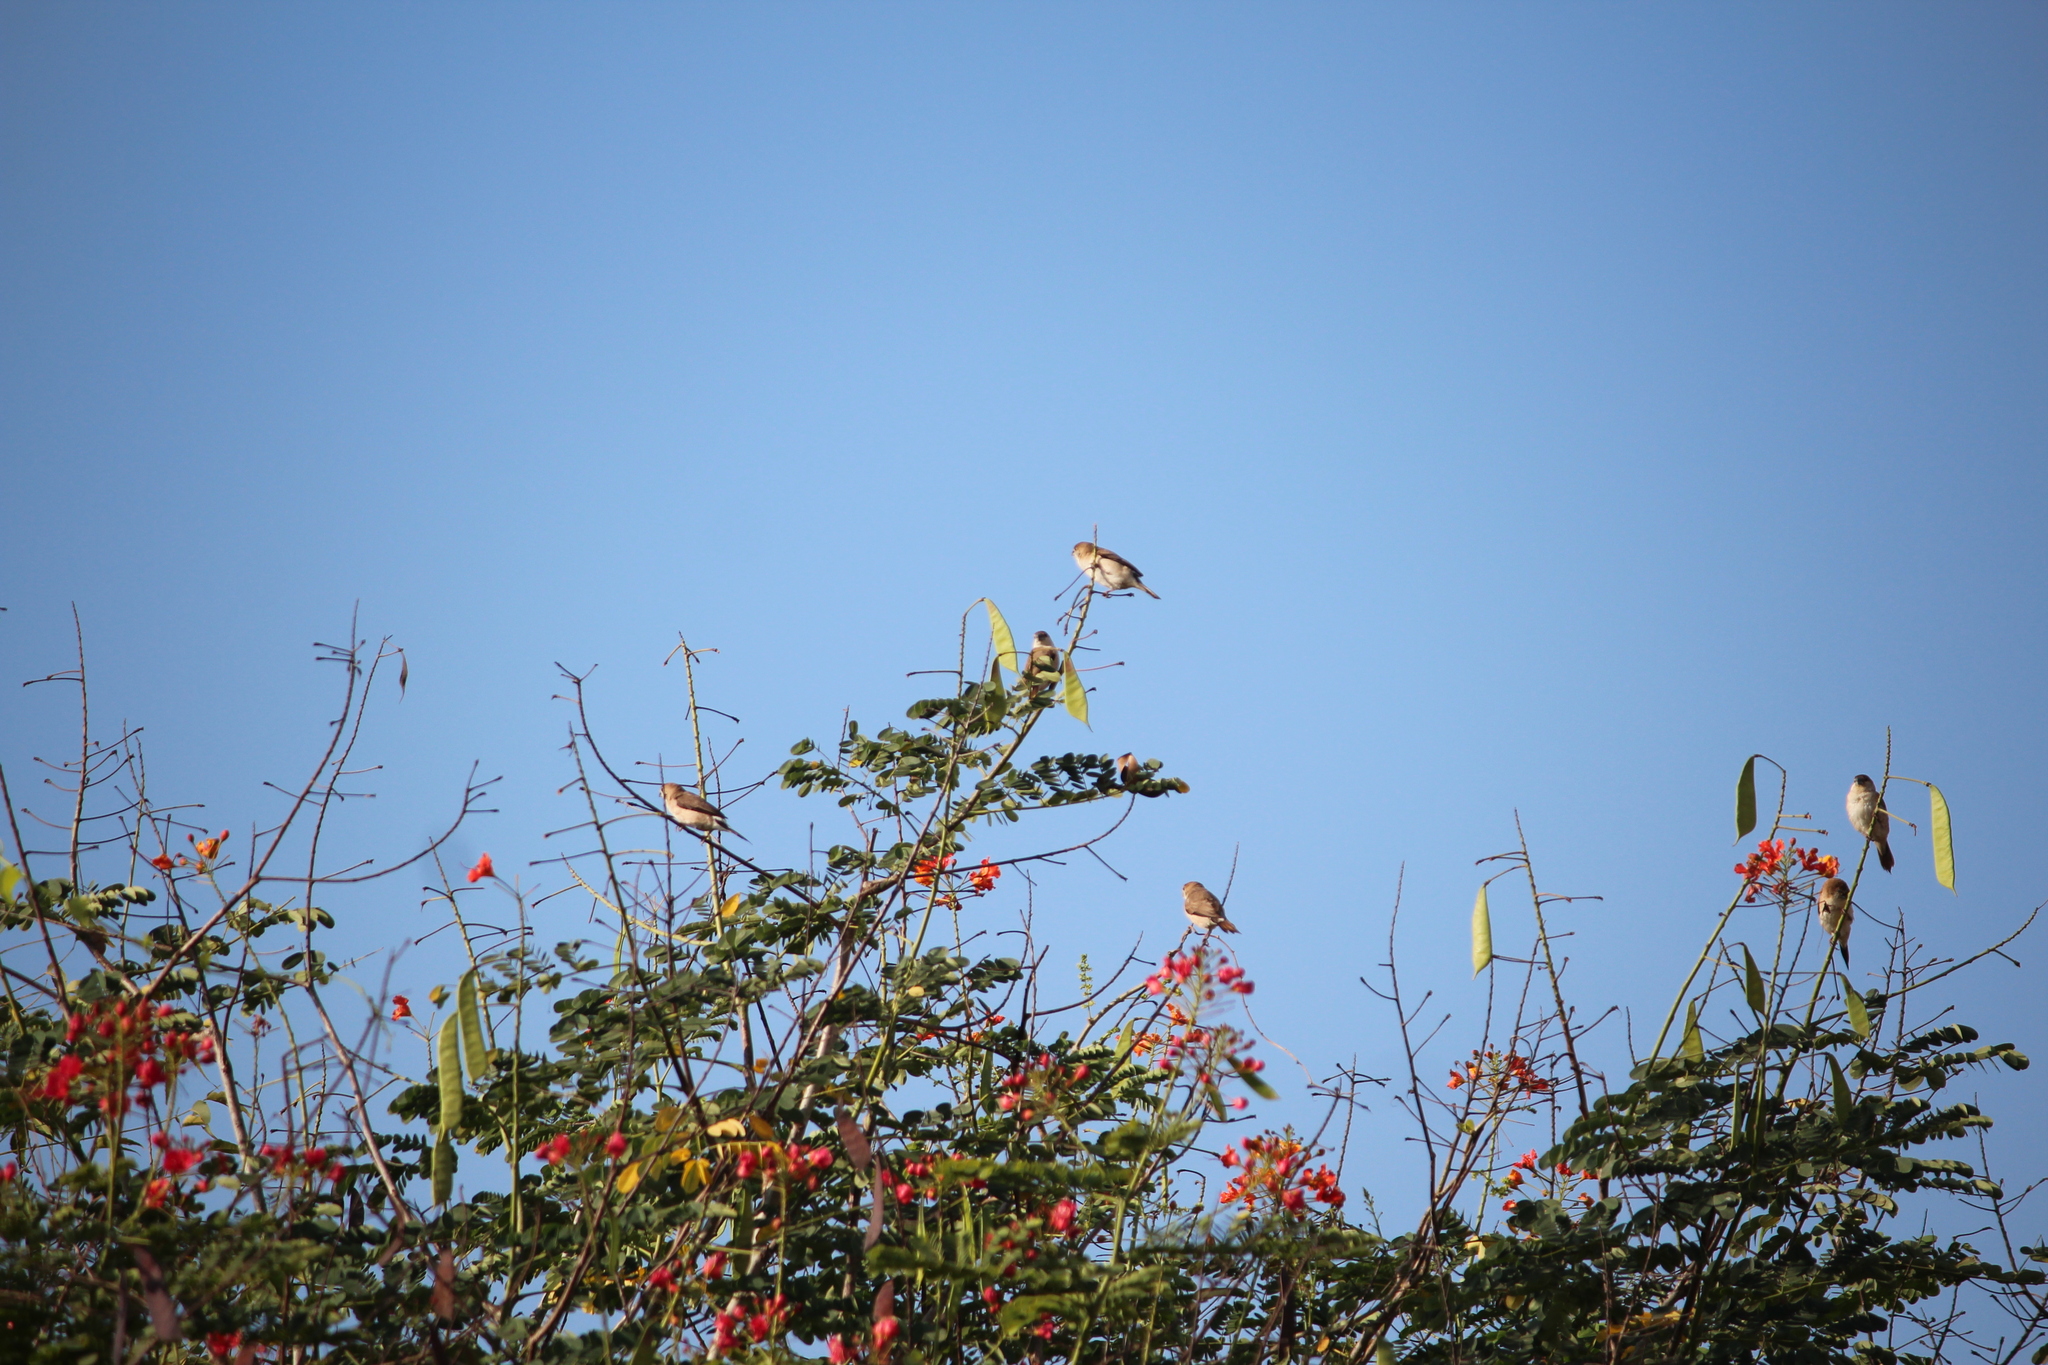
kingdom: Animalia
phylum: Chordata
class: Aves
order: Passeriformes
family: Estrildidae
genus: Euodice
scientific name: Euodice malabarica
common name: Indian silverbill
